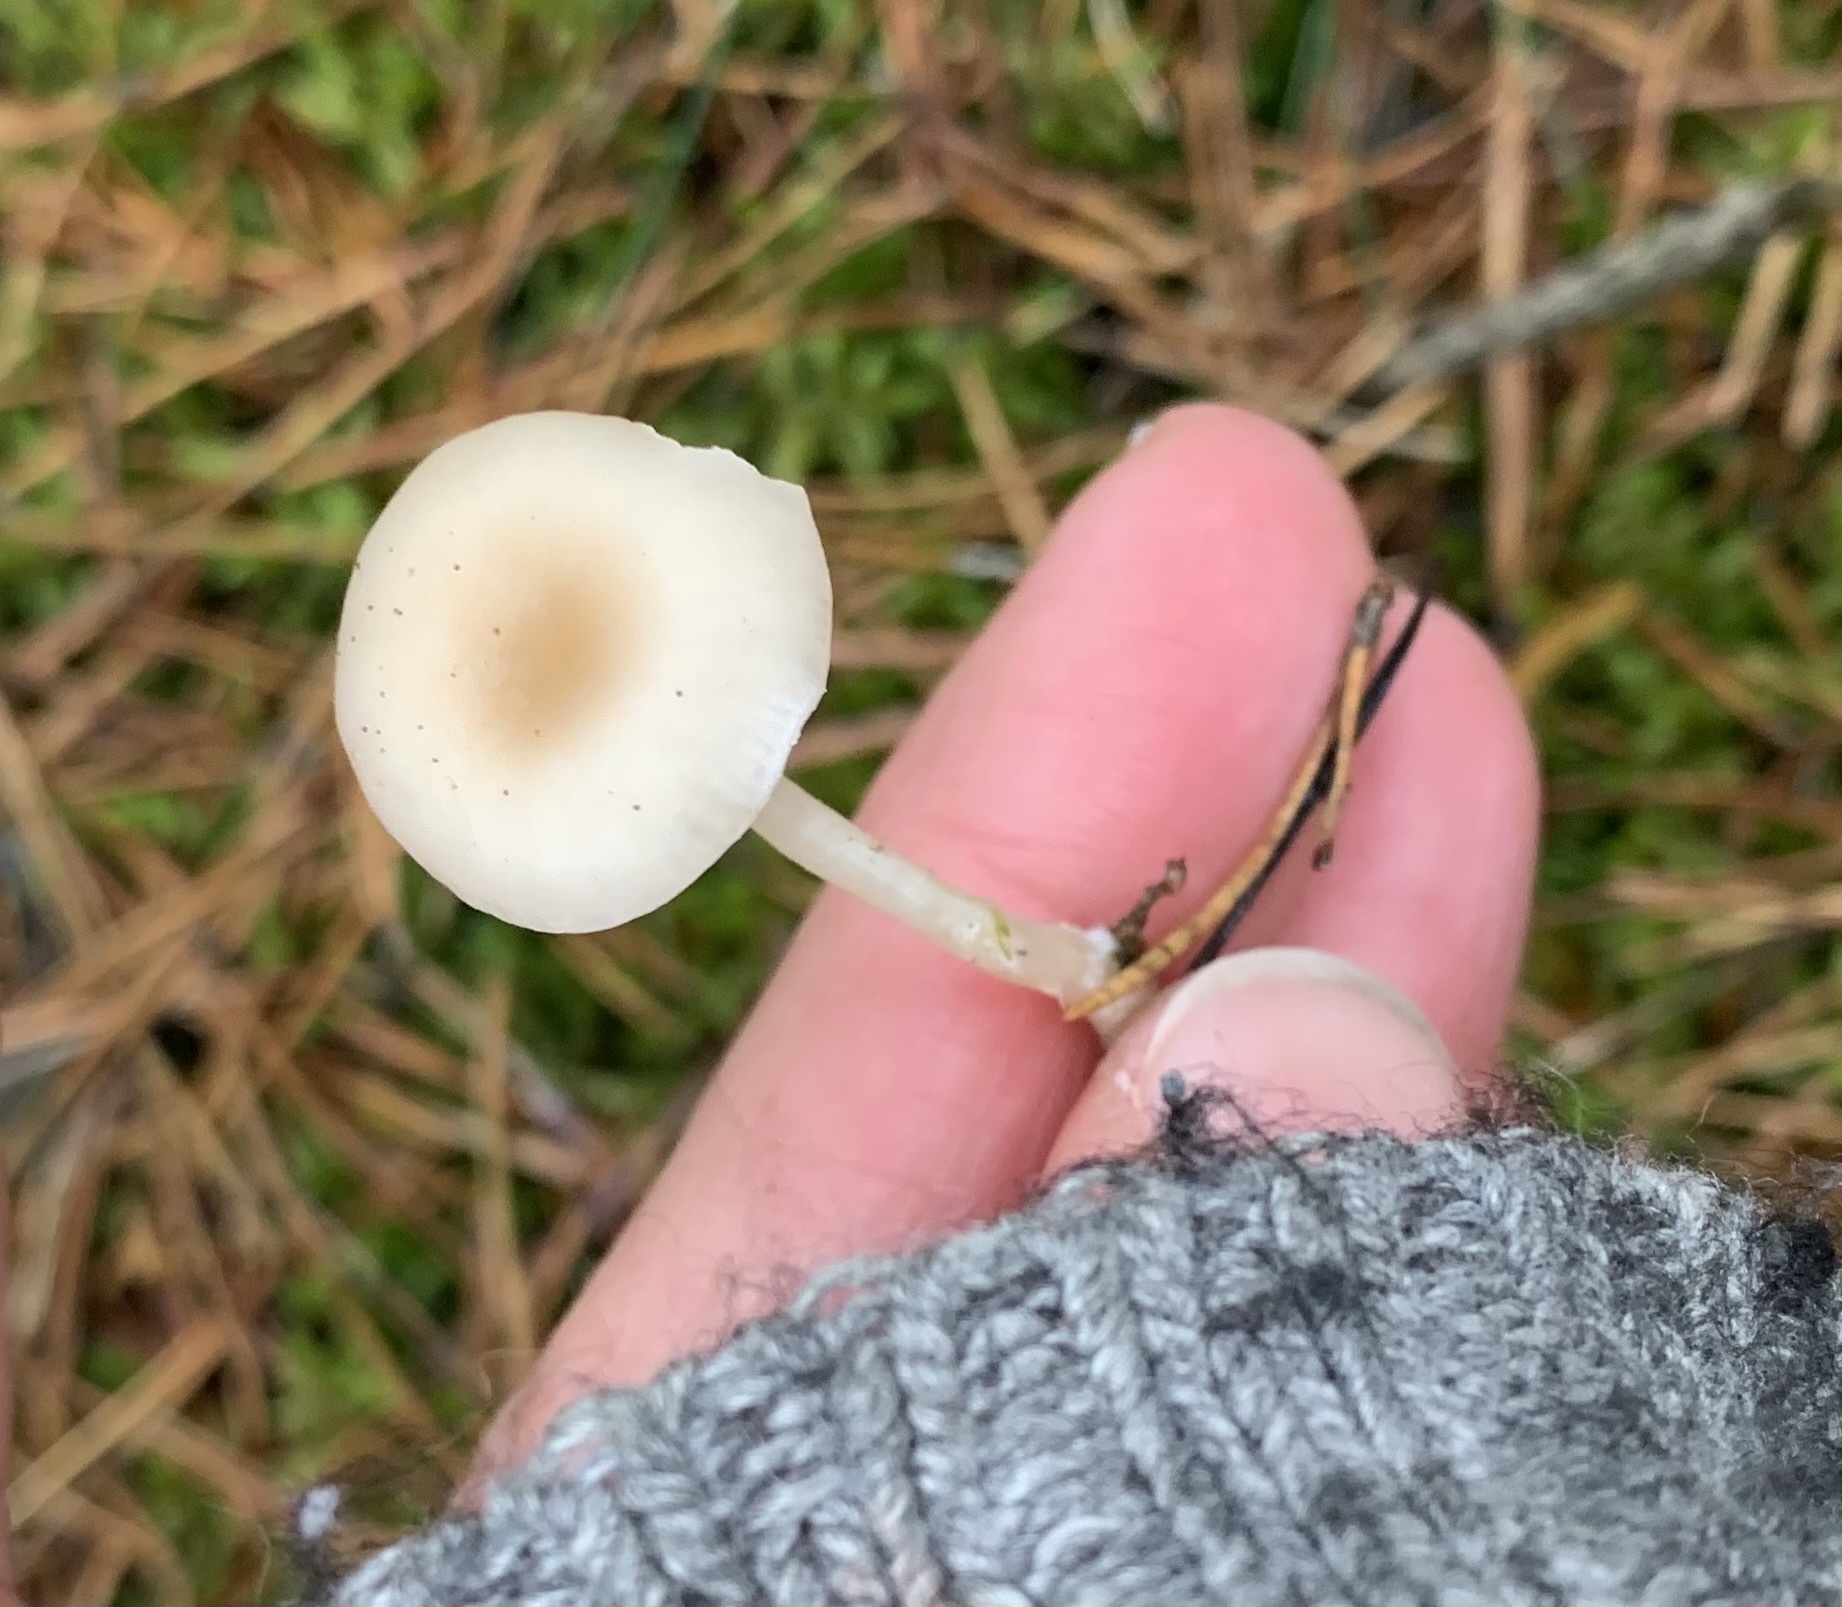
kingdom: Fungi
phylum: Basidiomycota
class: Agaricomycetes
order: Agaricales
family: Tricholomataceae
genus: Clitocybe
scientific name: Clitocybe fragrans
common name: Fragrant funnel
